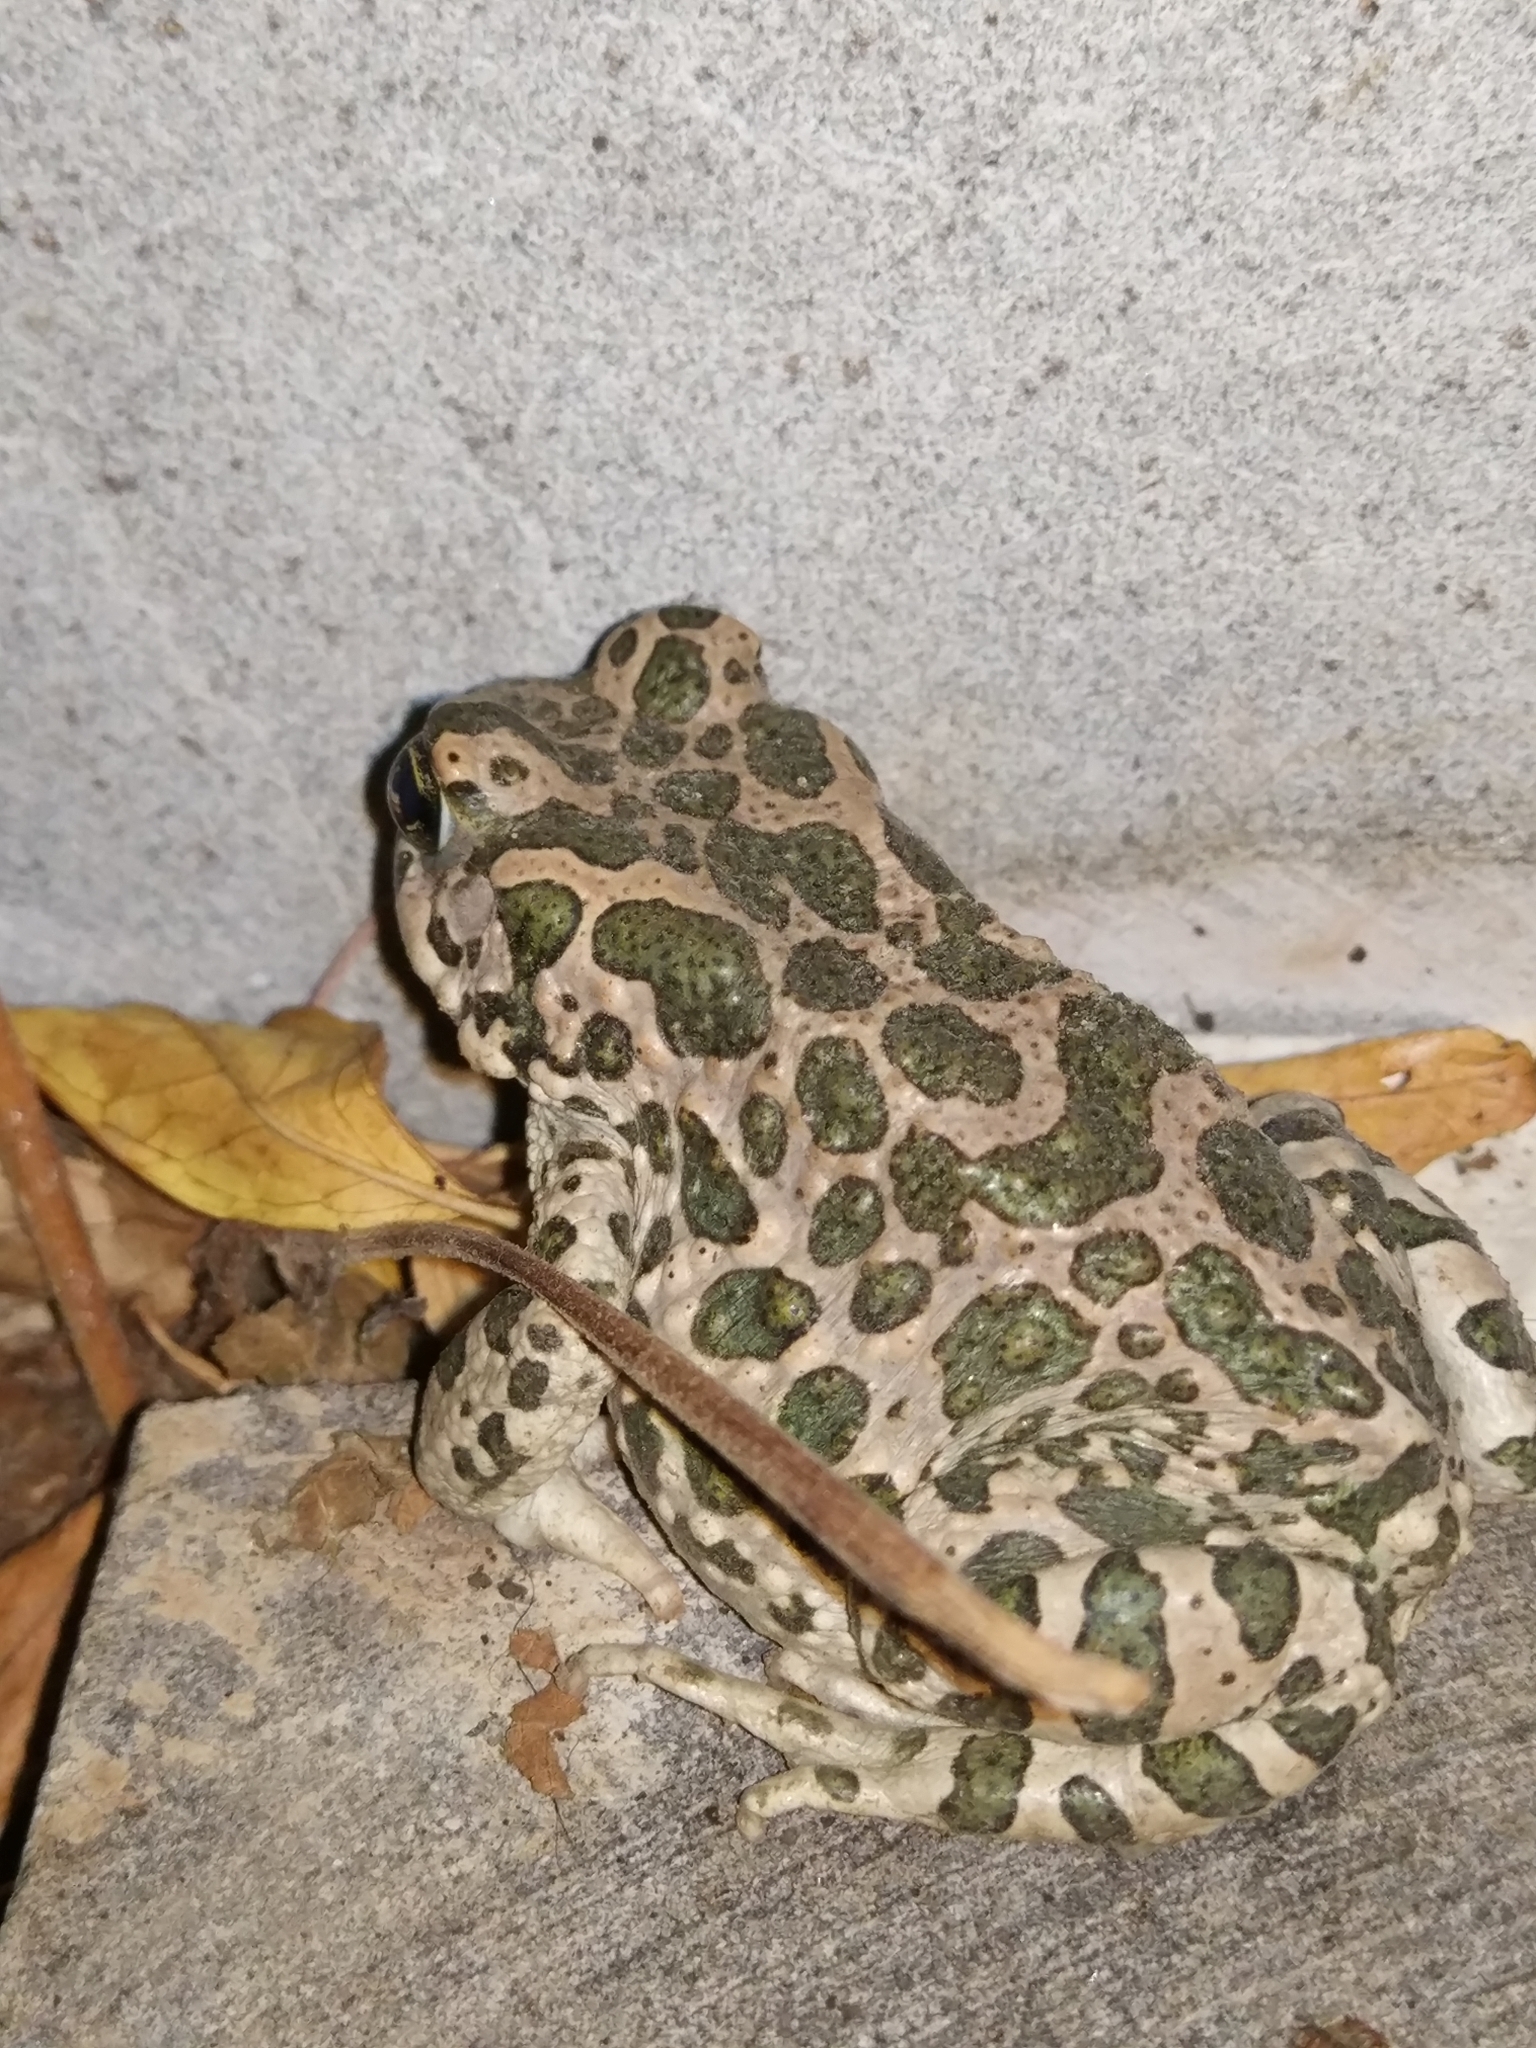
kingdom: Animalia
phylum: Chordata
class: Amphibia
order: Anura
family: Bufonidae
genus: Bufotes
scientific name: Bufotes viridis
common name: European green toad
